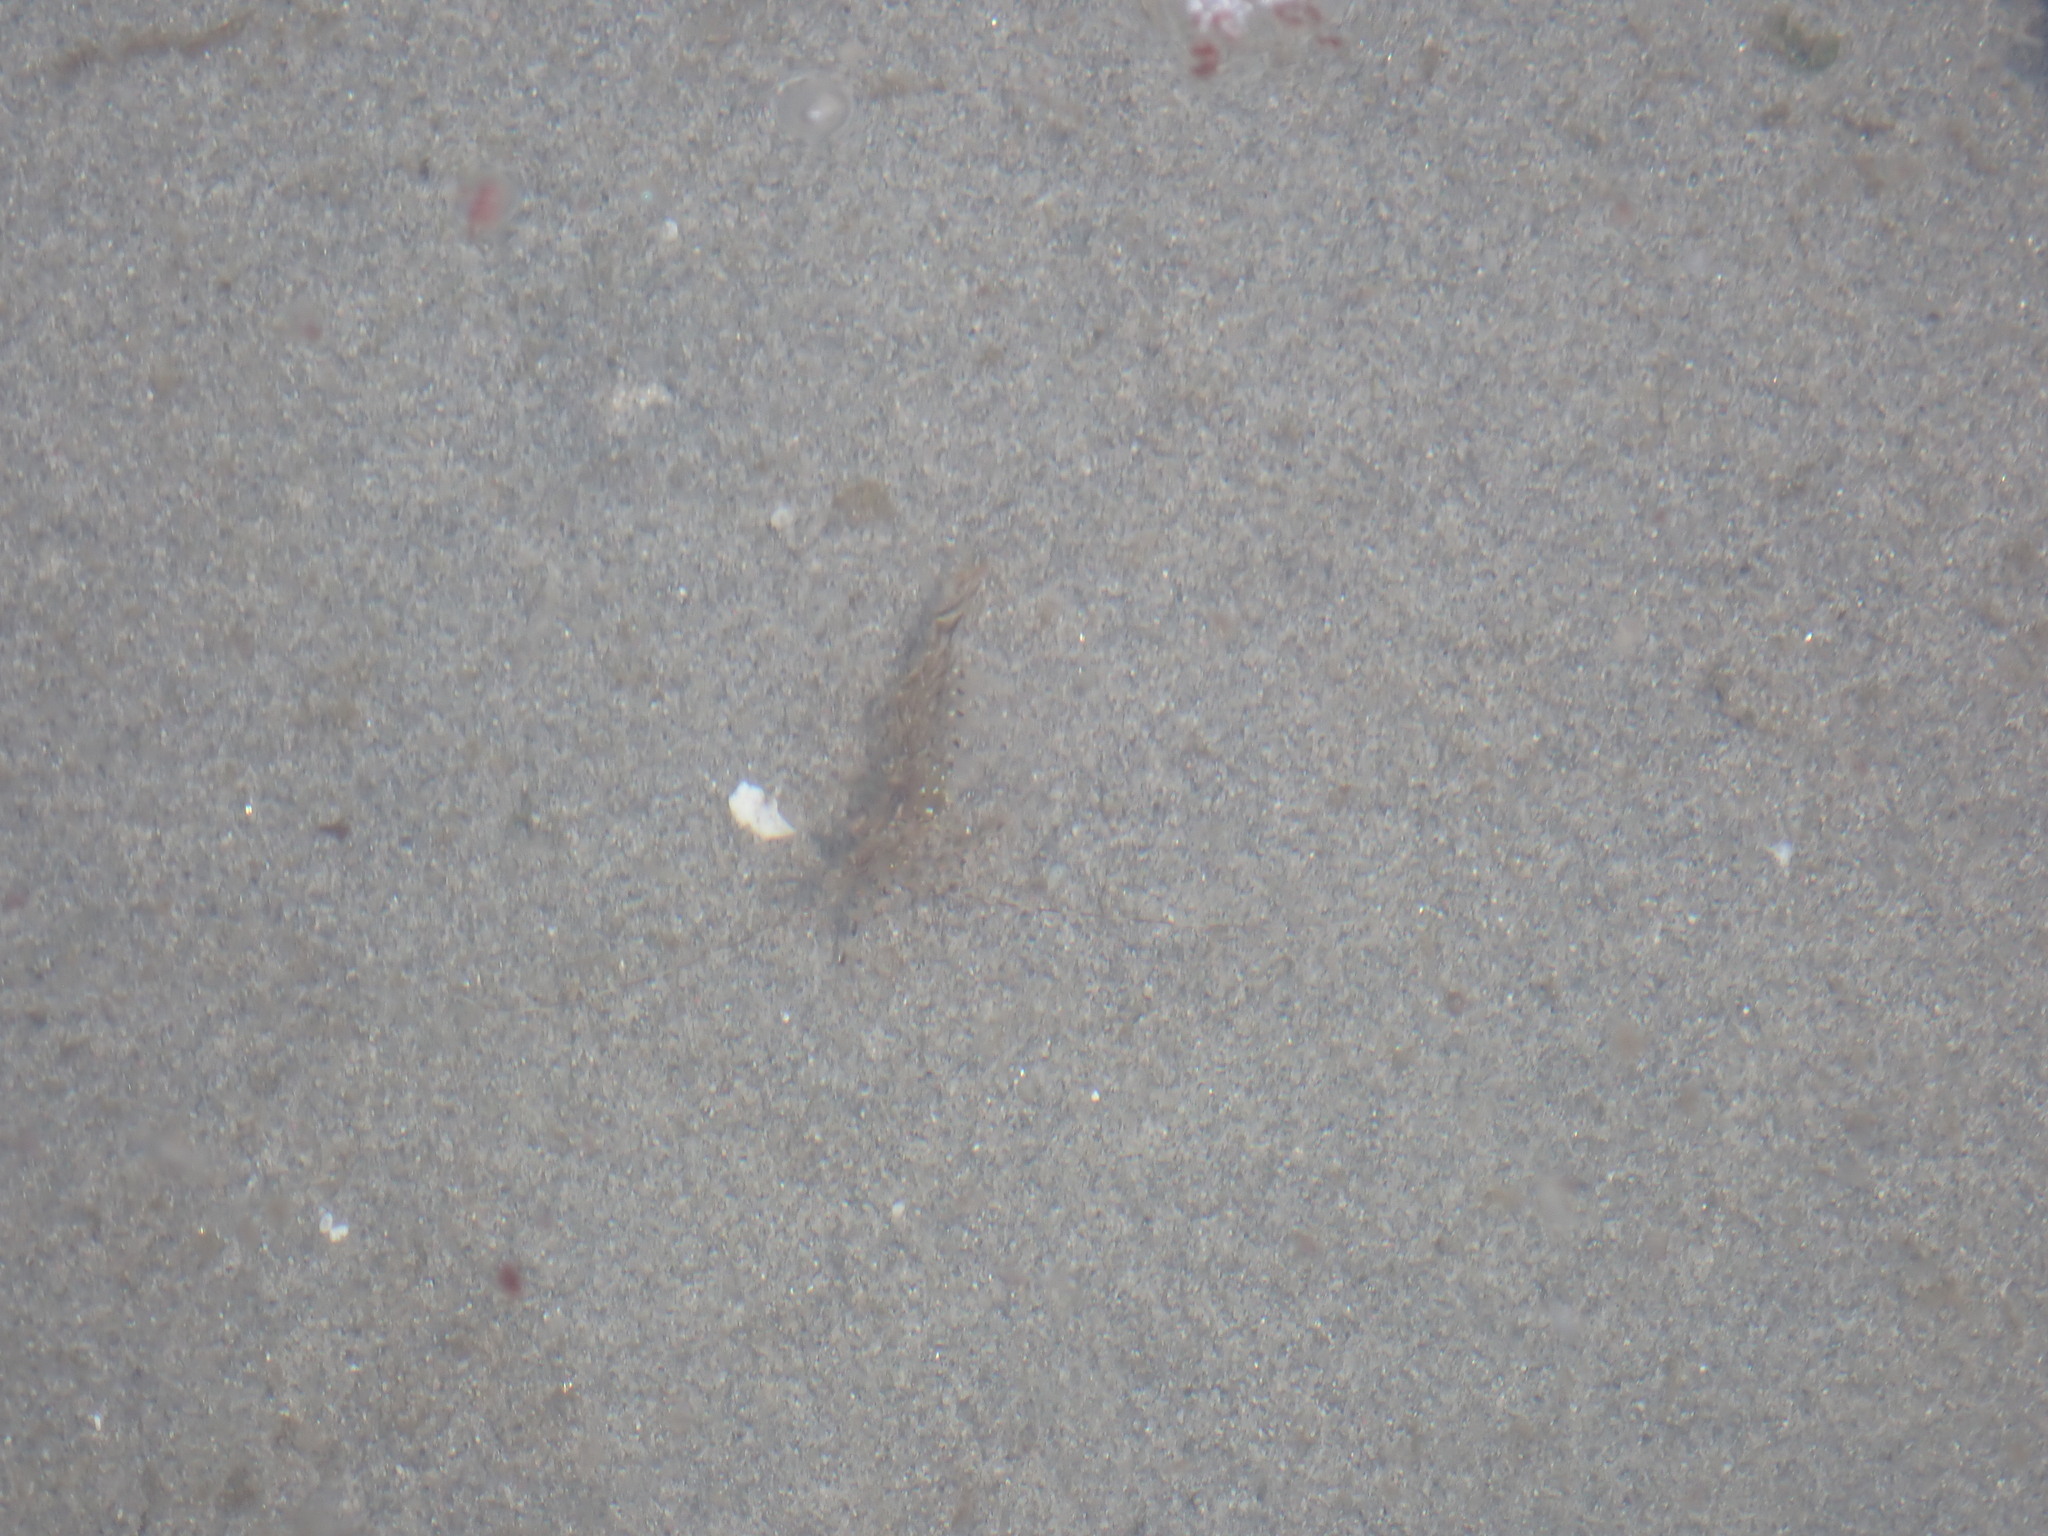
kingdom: Animalia
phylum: Arthropoda
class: Malacostraca
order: Decapoda
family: Pandalidae
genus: Pandalus
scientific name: Pandalus danae
